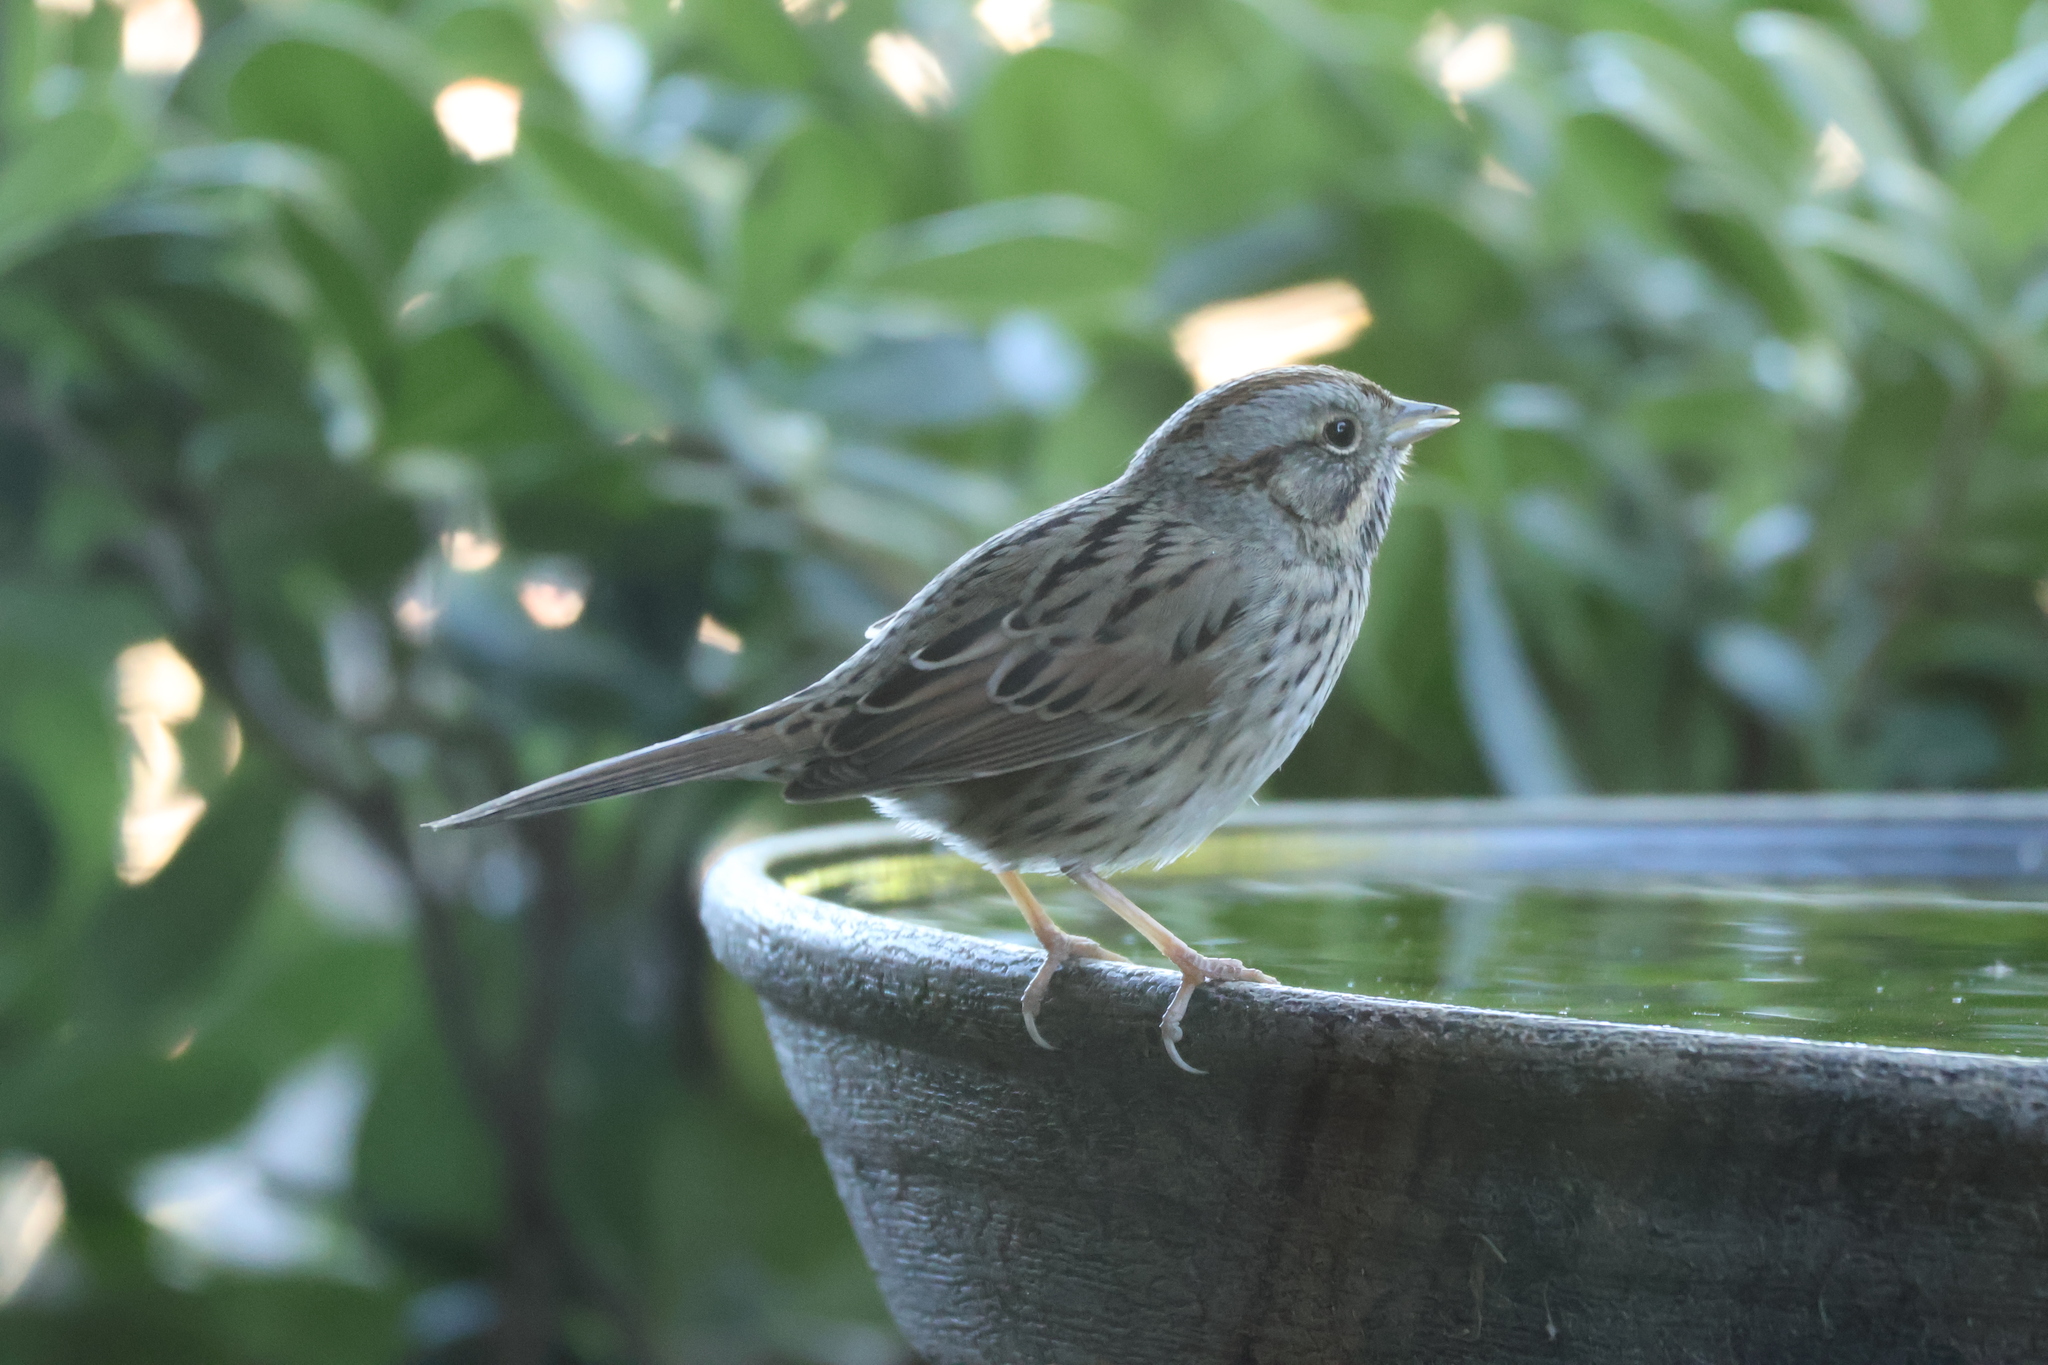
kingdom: Animalia
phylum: Chordata
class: Aves
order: Passeriformes
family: Passerellidae
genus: Melospiza
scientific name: Melospiza lincolnii
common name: Lincoln's sparrow
